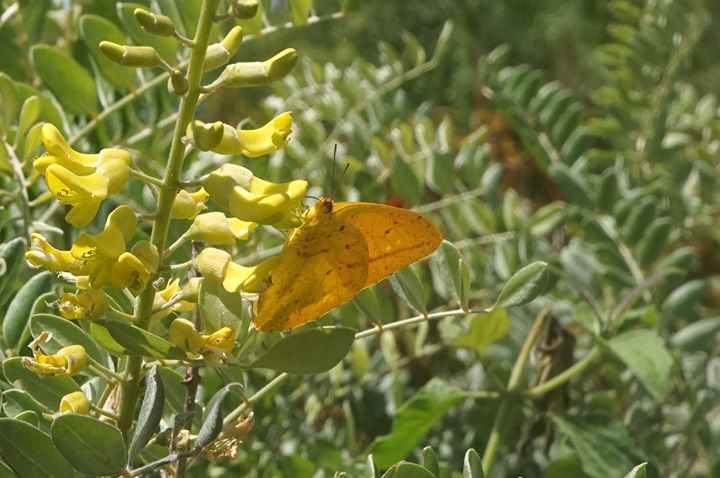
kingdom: Animalia
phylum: Arthropoda
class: Insecta
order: Lepidoptera
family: Pieridae
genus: Phoebis
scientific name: Phoebis agarithe
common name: Large orange sulphur
